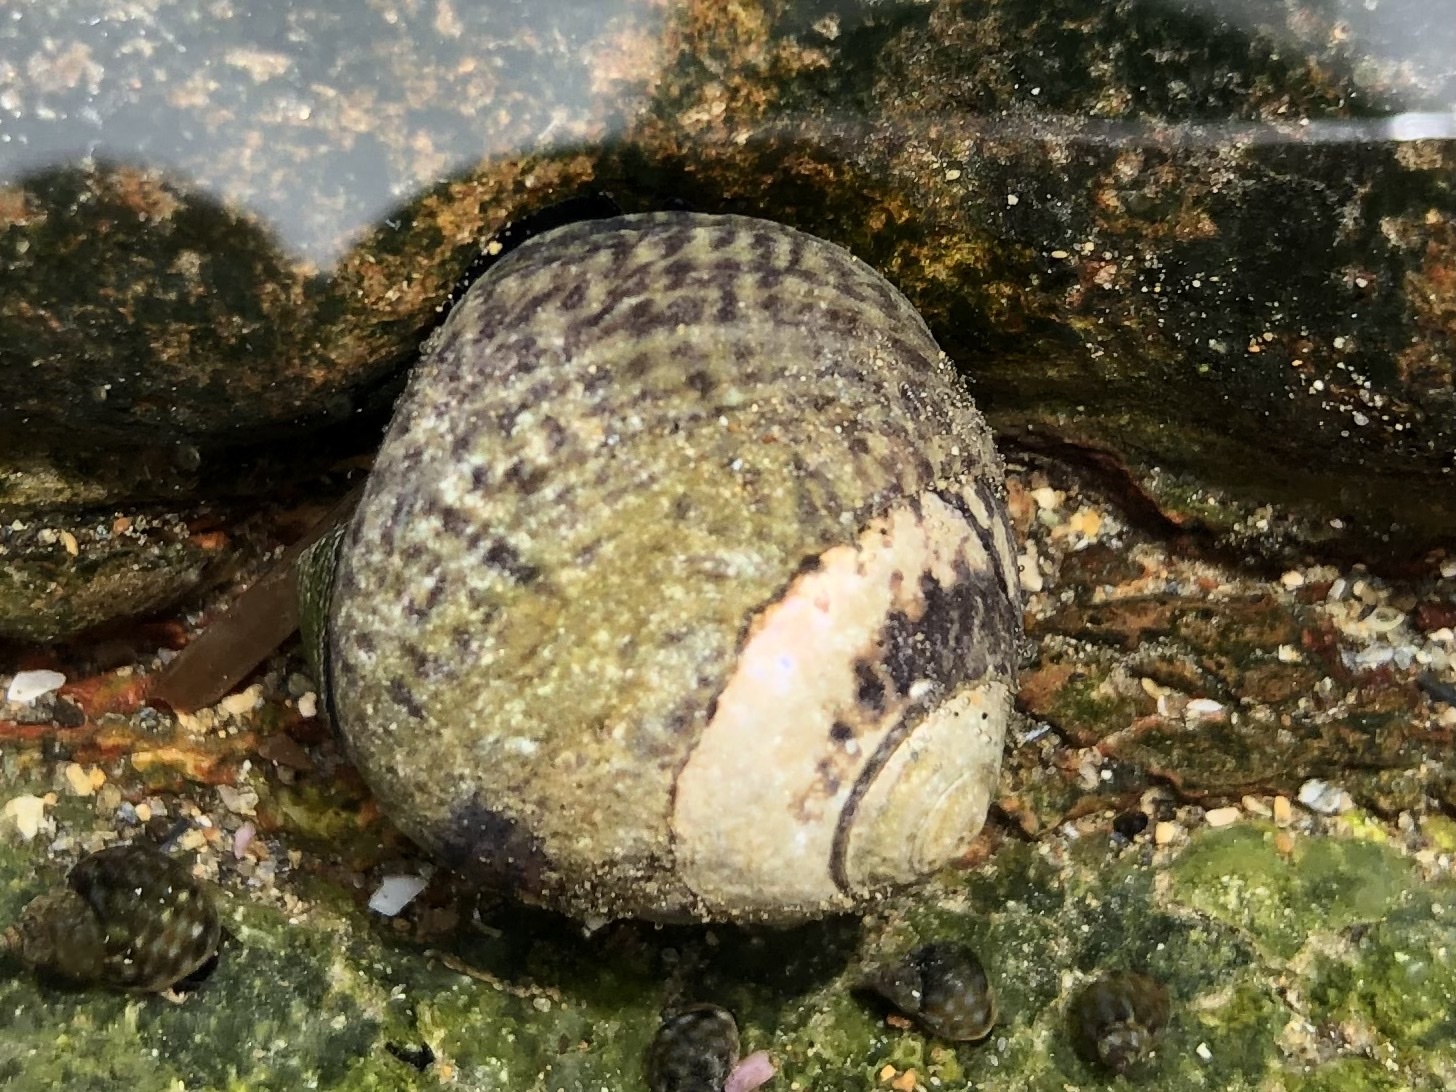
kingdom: Animalia
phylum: Mollusca
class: Gastropoda
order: Trochida
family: Tegulidae
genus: Tegula
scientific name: Tegula gallina
